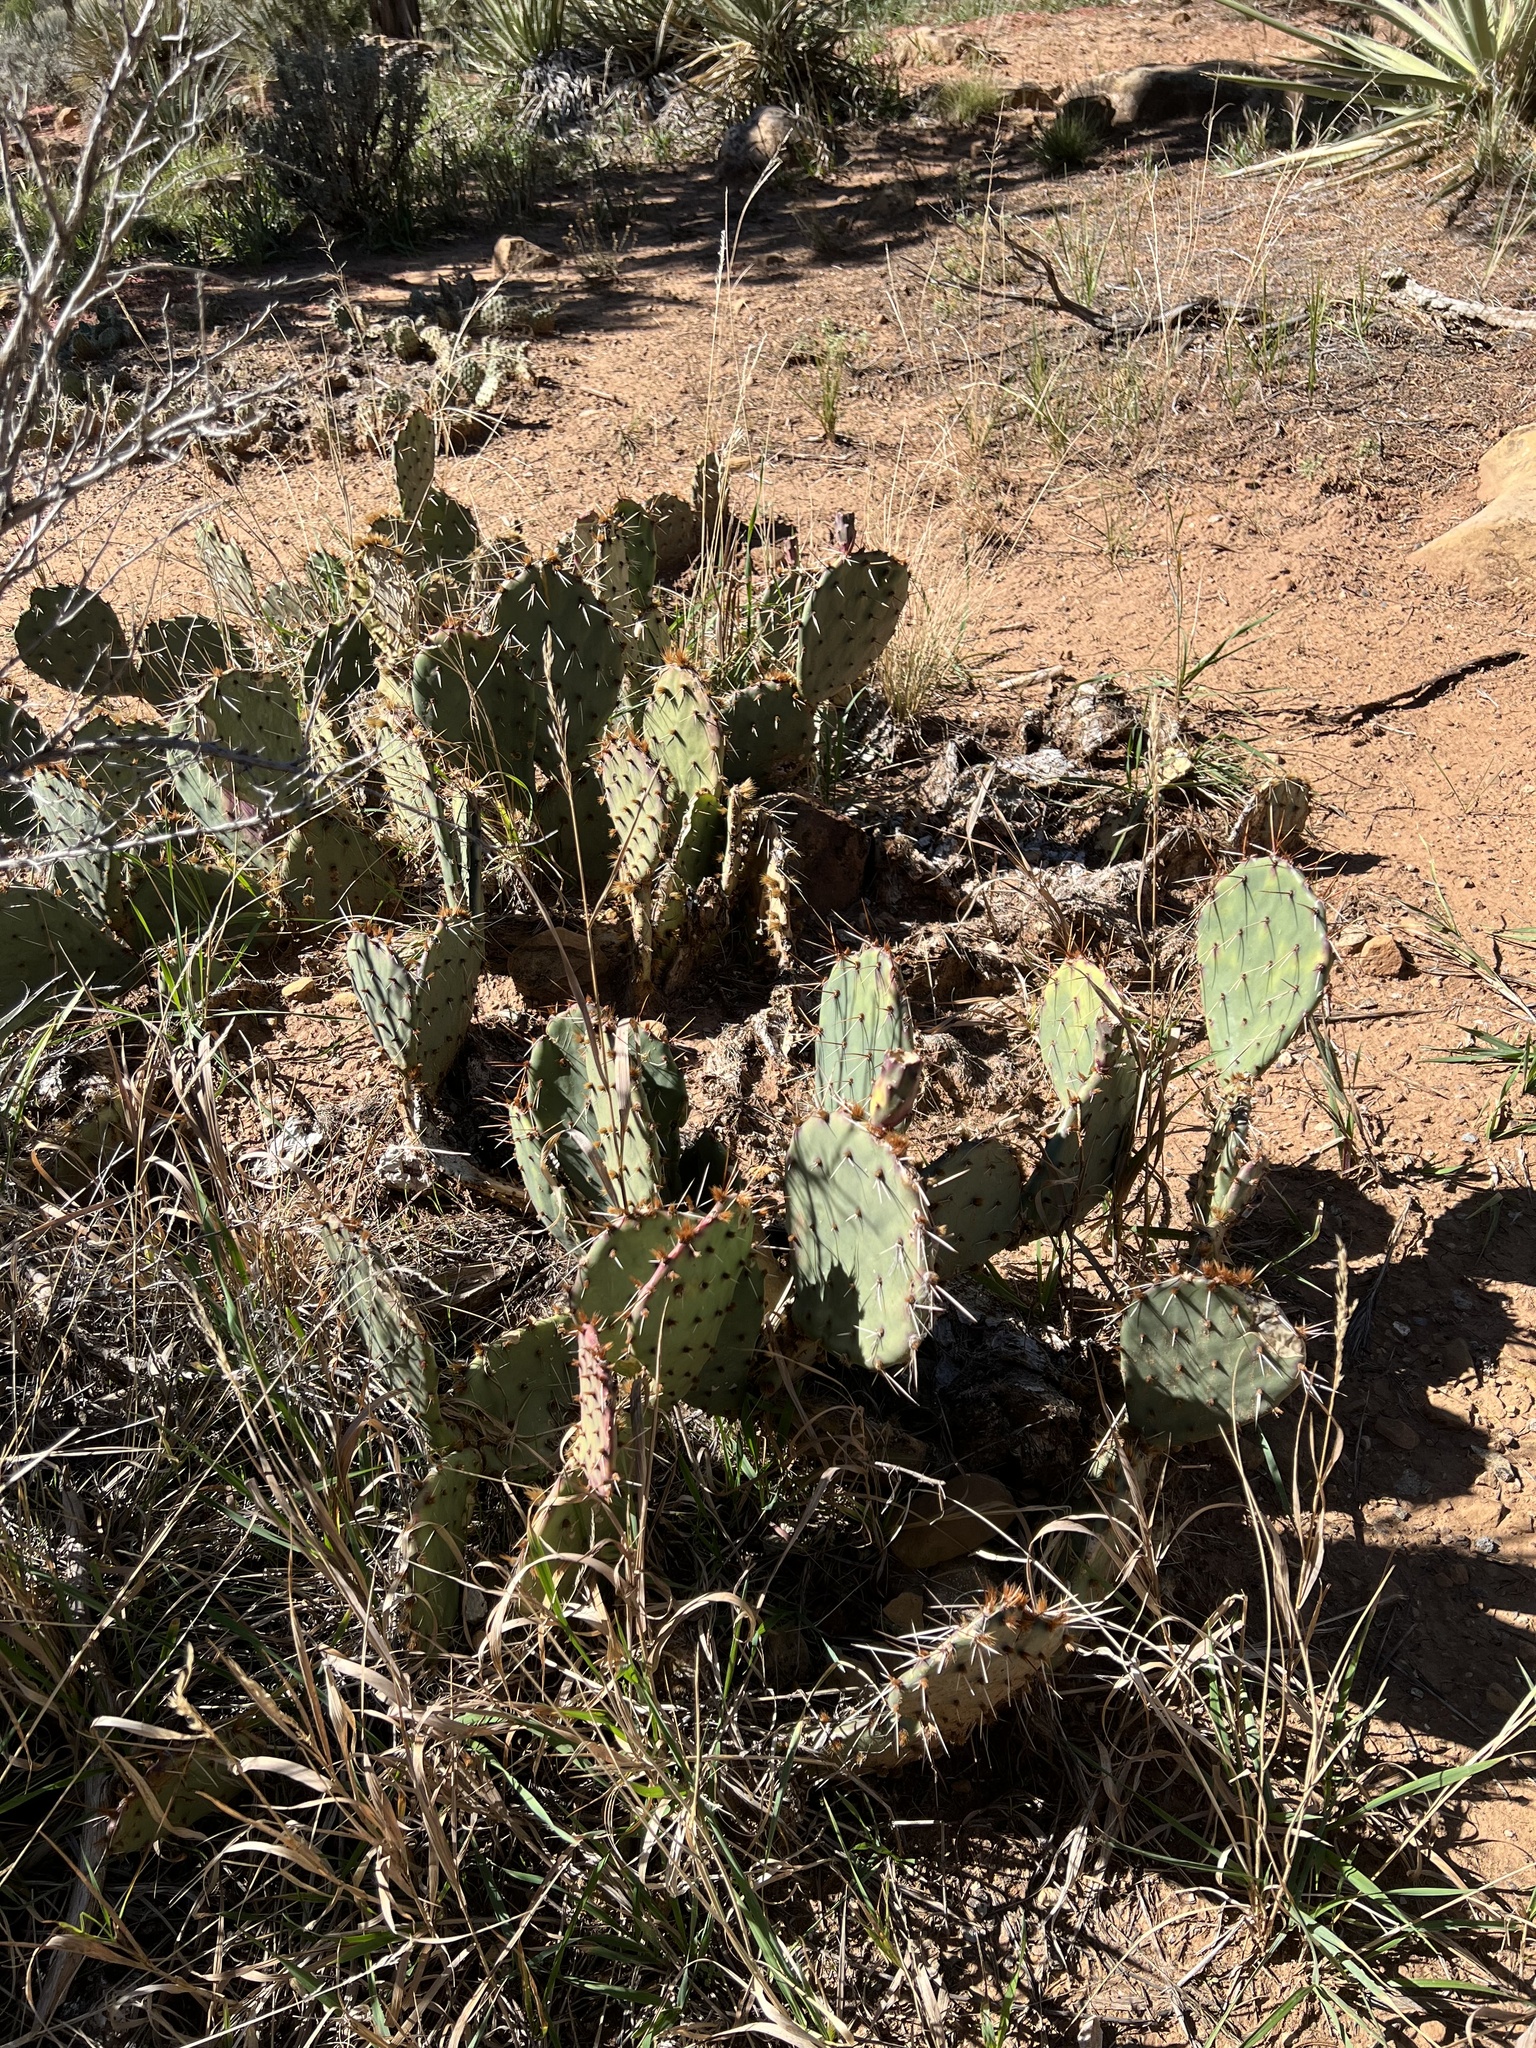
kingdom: Plantae
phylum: Tracheophyta
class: Magnoliopsida
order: Caryophyllales
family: Cactaceae
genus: Opuntia
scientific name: Opuntia phaeacantha
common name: New mexico prickly-pear
